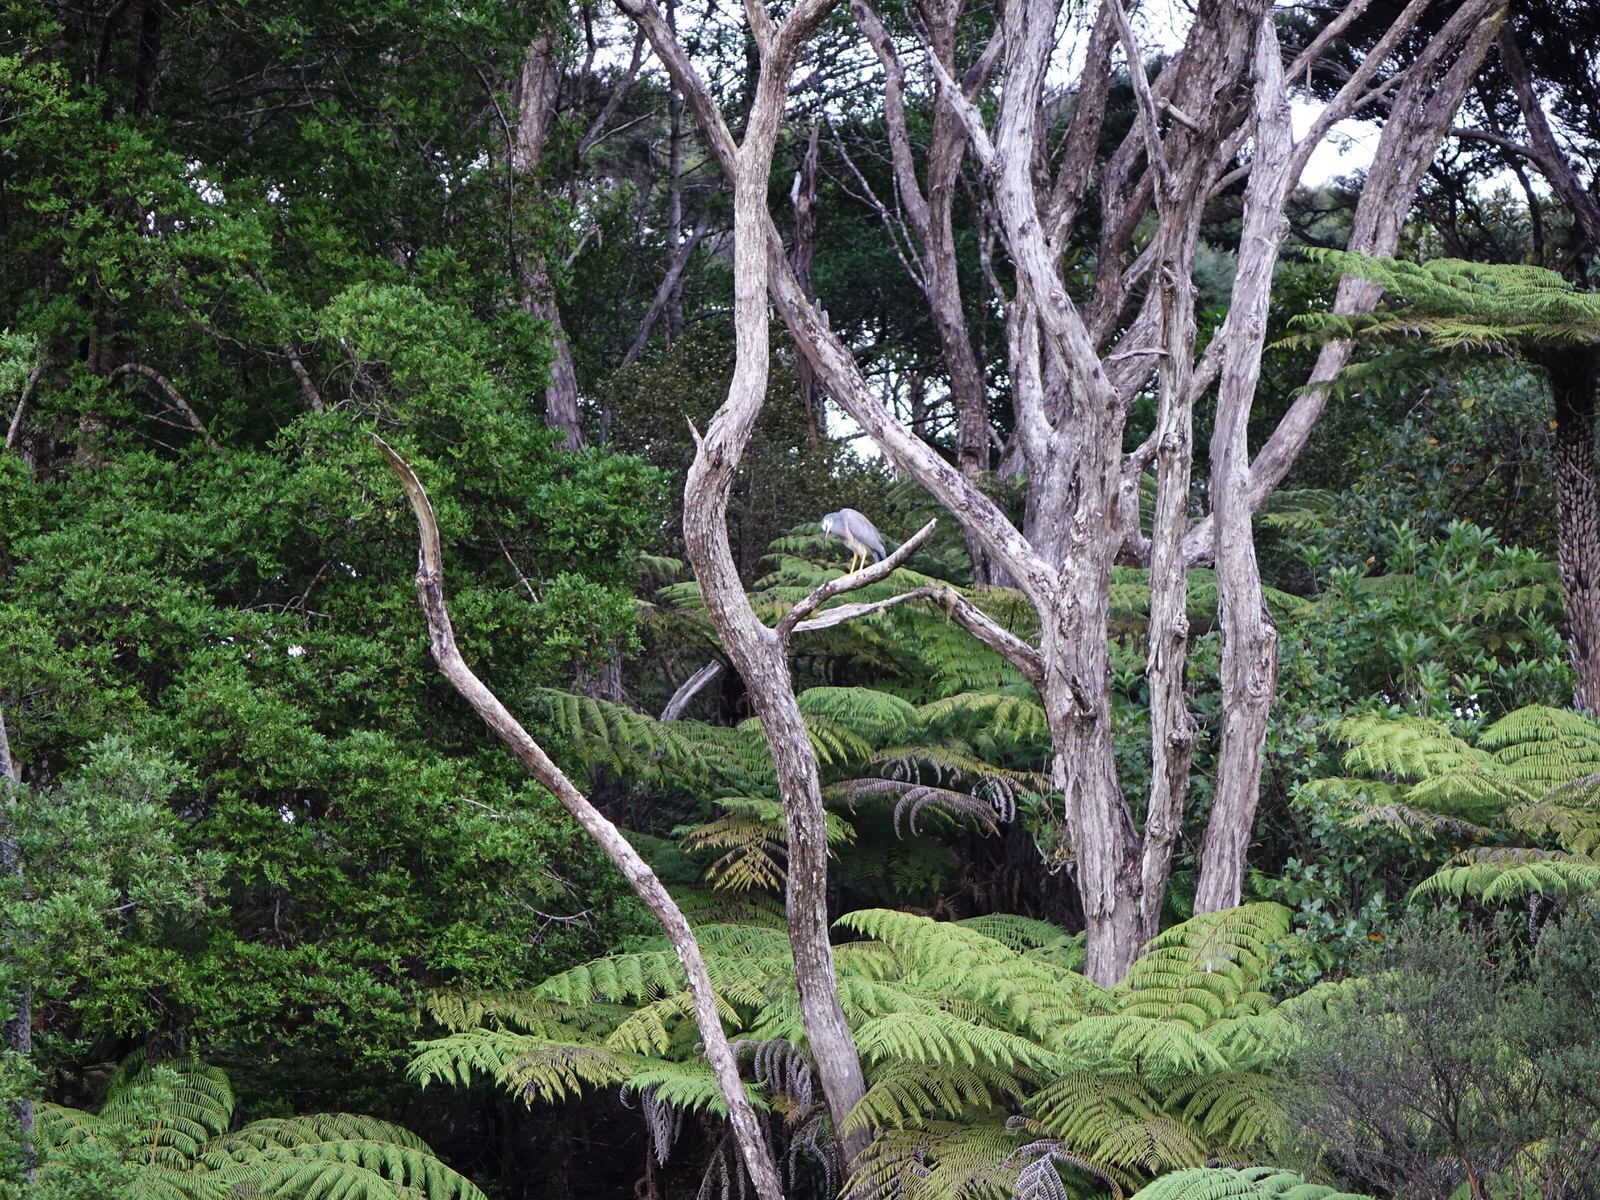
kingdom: Animalia
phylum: Chordata
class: Aves
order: Pelecaniformes
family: Ardeidae
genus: Egretta
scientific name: Egretta novaehollandiae
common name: White-faced heron
